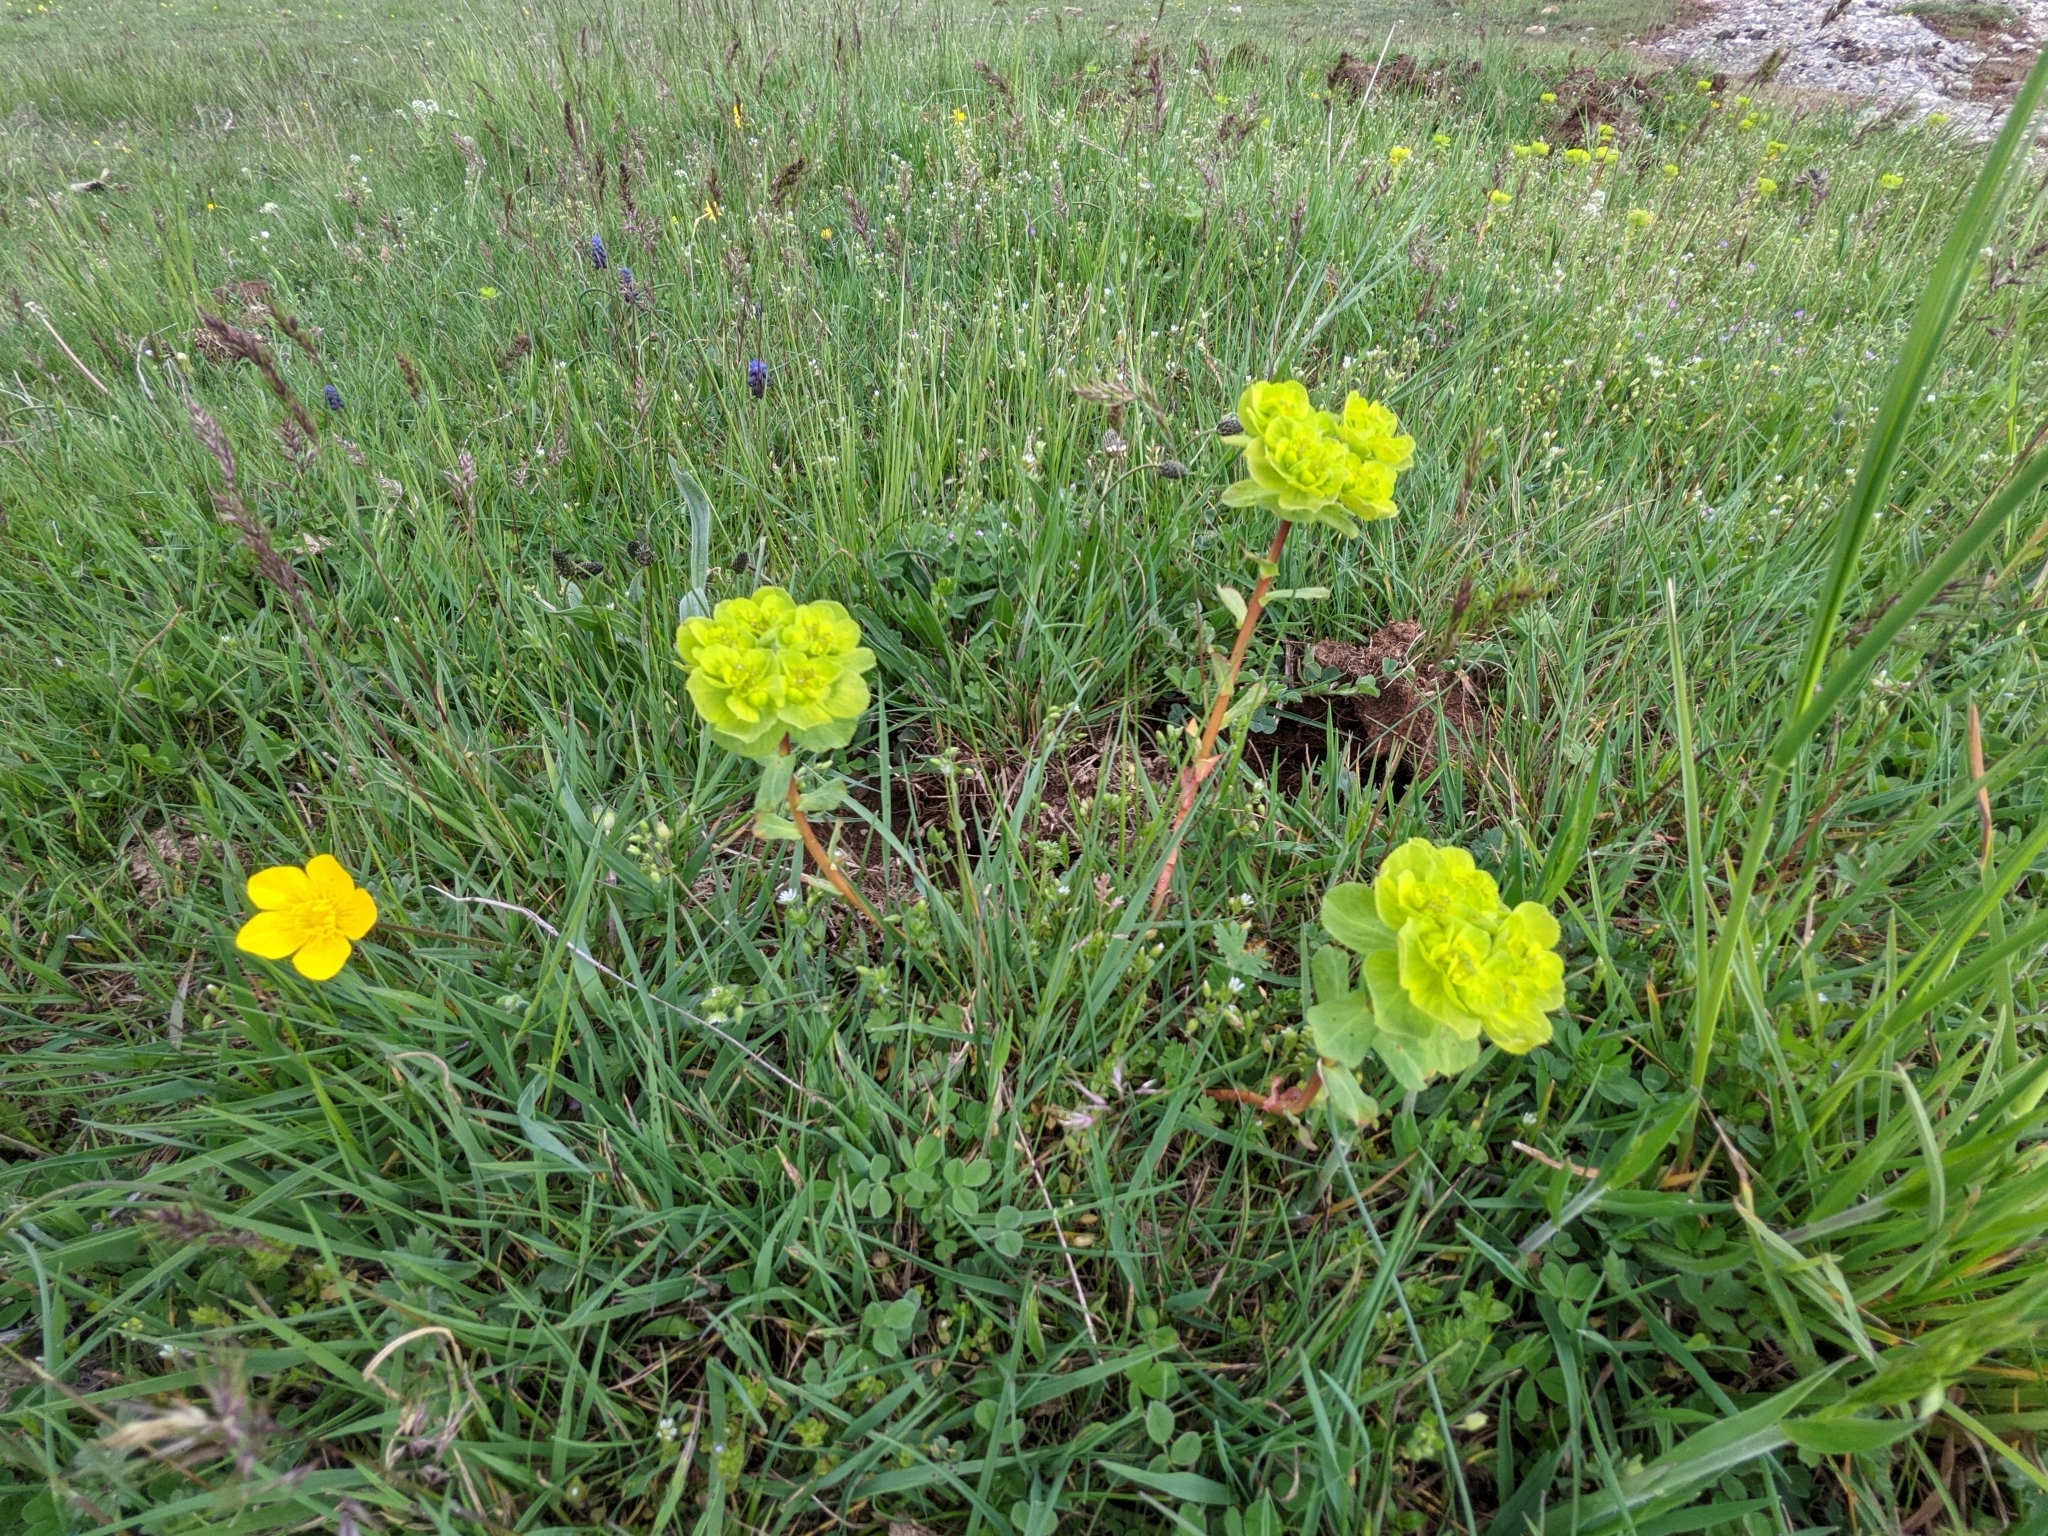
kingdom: Plantae
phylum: Tracheophyta
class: Magnoliopsida
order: Malpighiales
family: Euphorbiaceae
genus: Euphorbia
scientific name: Euphorbia helioscopia
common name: Sun spurge
